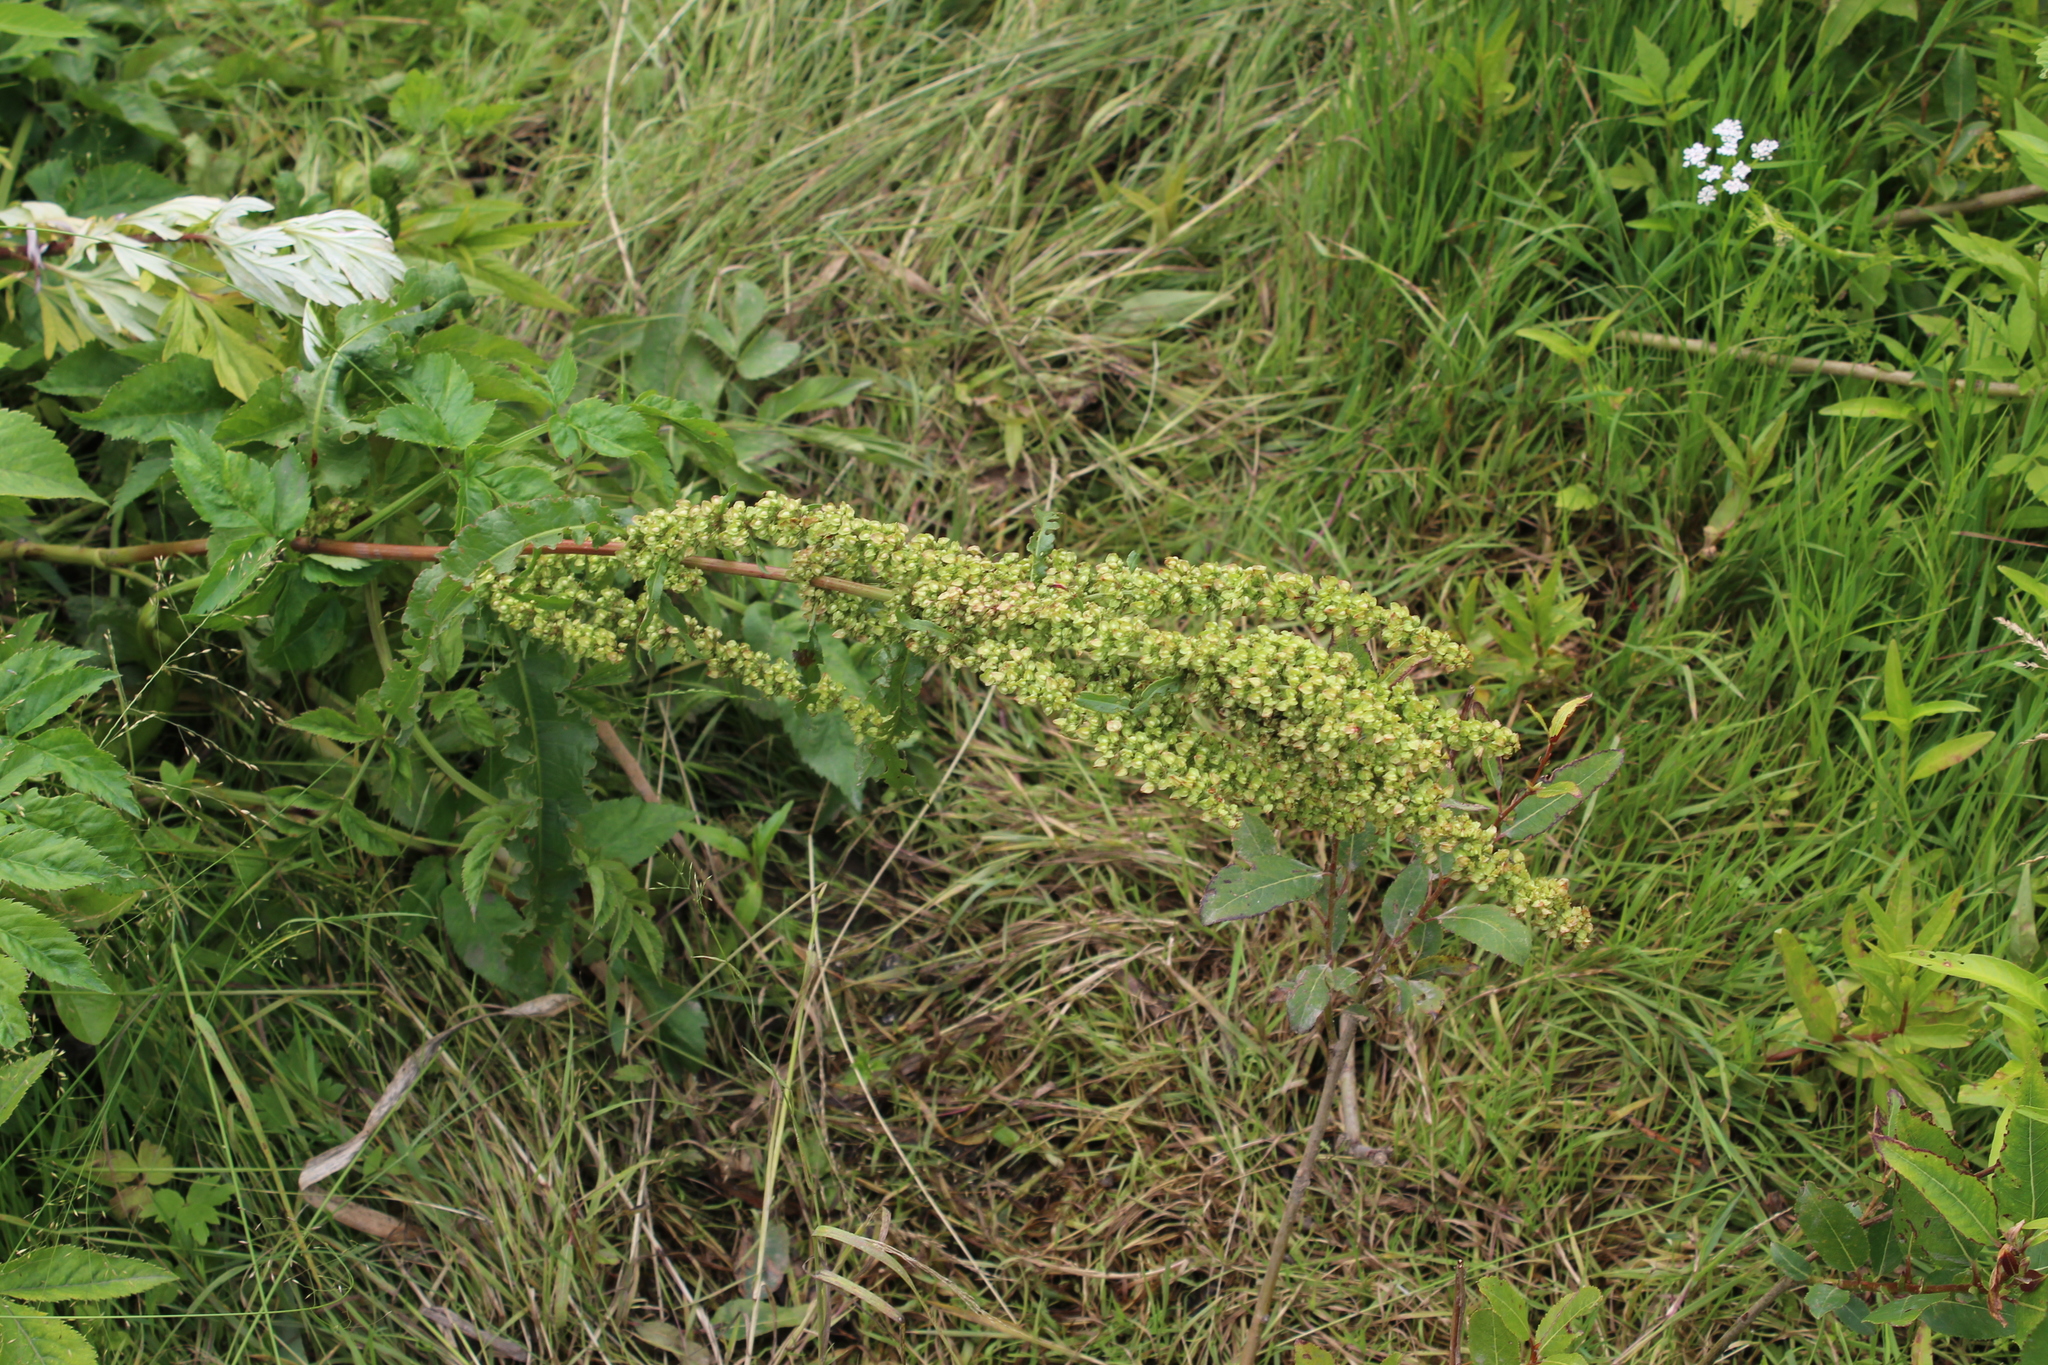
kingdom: Plantae
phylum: Tracheophyta
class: Magnoliopsida
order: Caryophyllales
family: Polygonaceae
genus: Rumex
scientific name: Rumex crispus
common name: Curled dock
